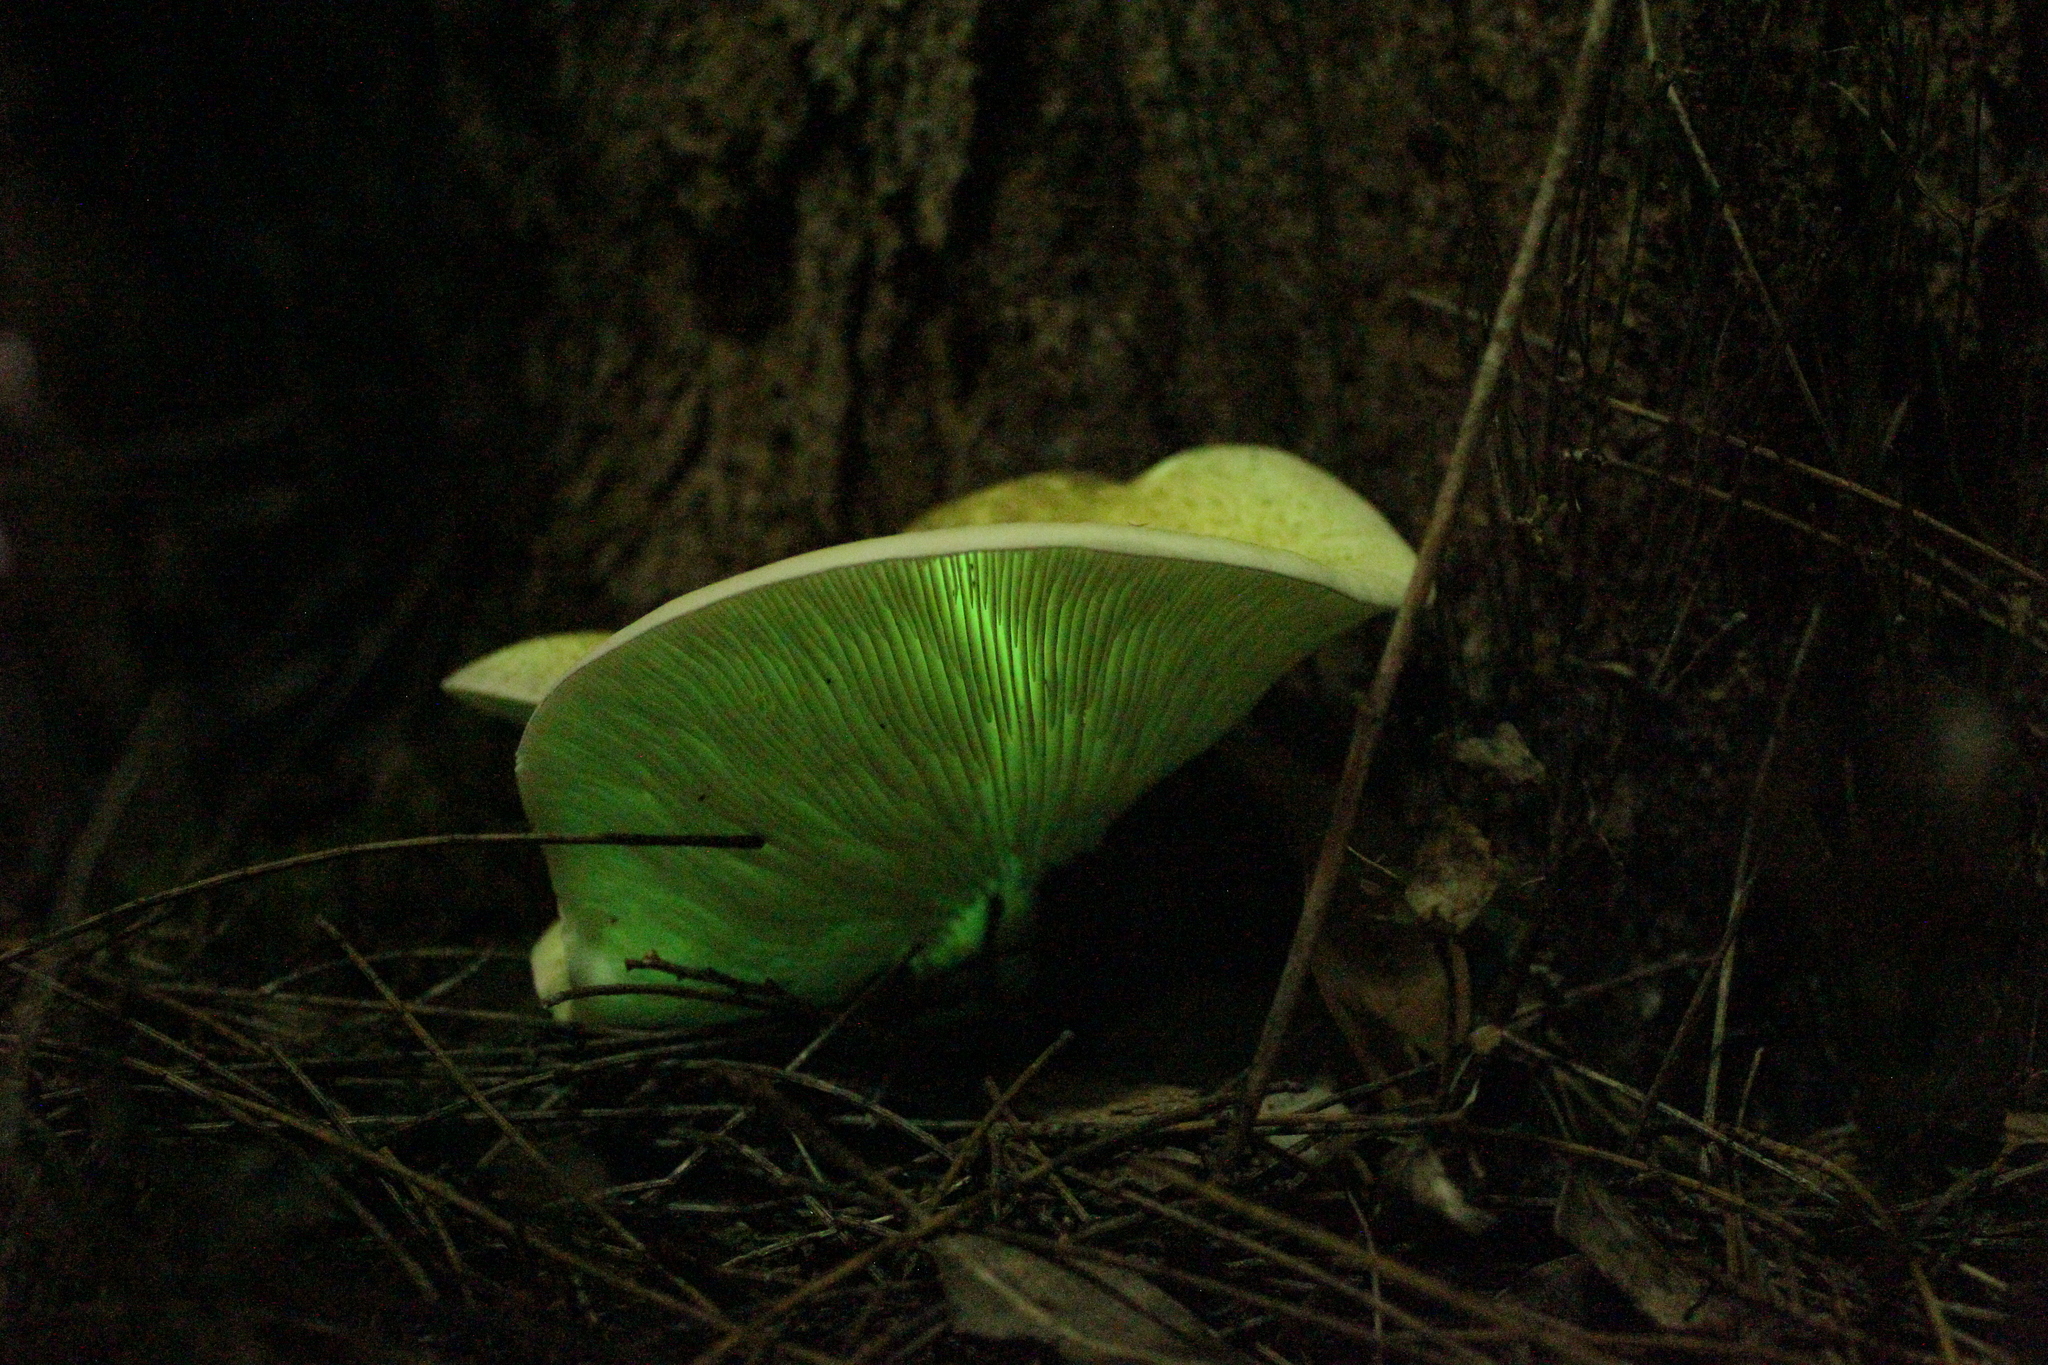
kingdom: Fungi
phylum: Basidiomycota
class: Agaricomycetes
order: Agaricales
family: Omphalotaceae
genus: Omphalotus
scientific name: Omphalotus nidiformis
